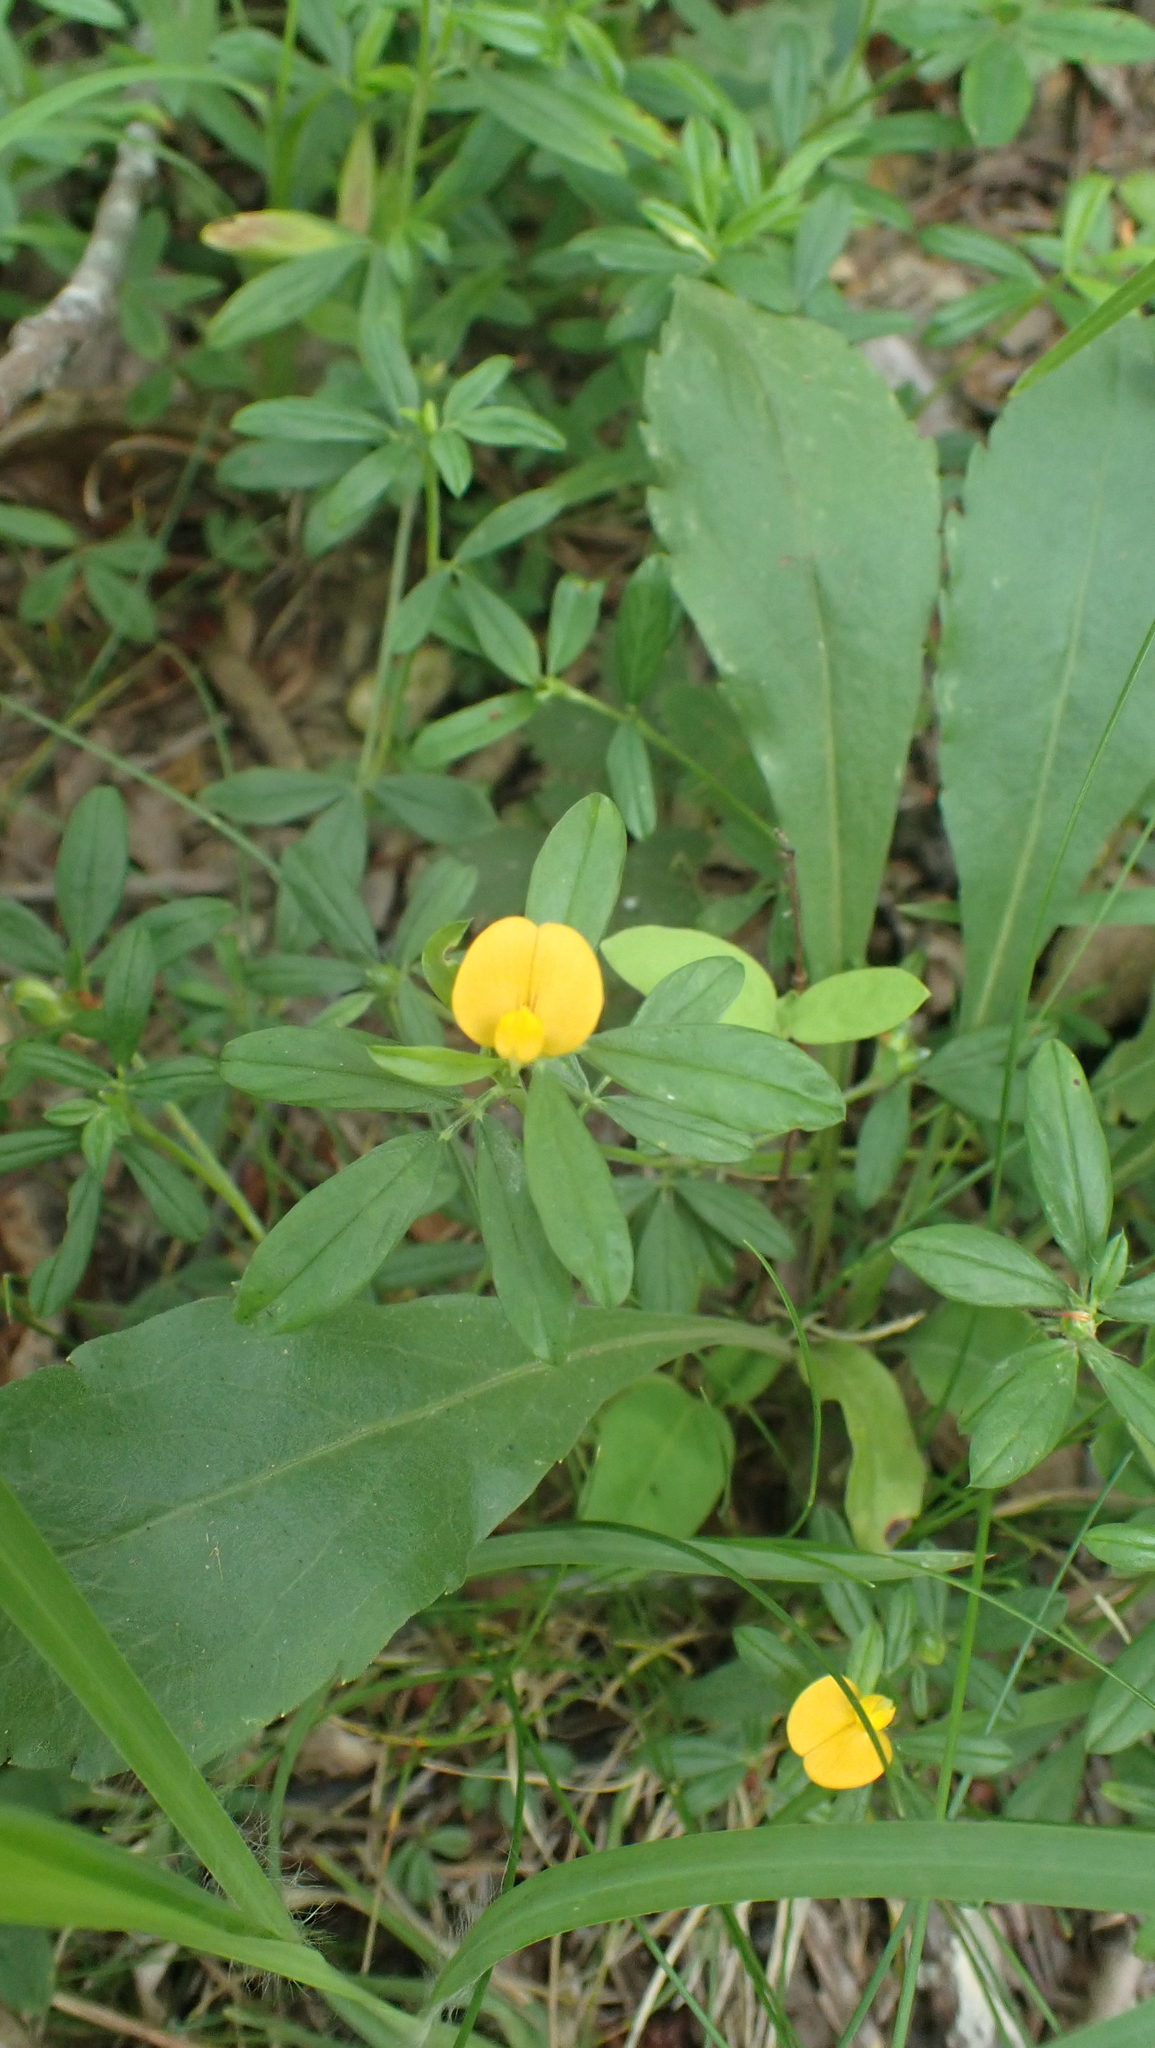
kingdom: Plantae
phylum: Tracheophyta
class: Magnoliopsida
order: Fabales
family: Fabaceae
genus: Stylosanthes
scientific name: Stylosanthes biflora
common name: Two-flower pencil-flower
